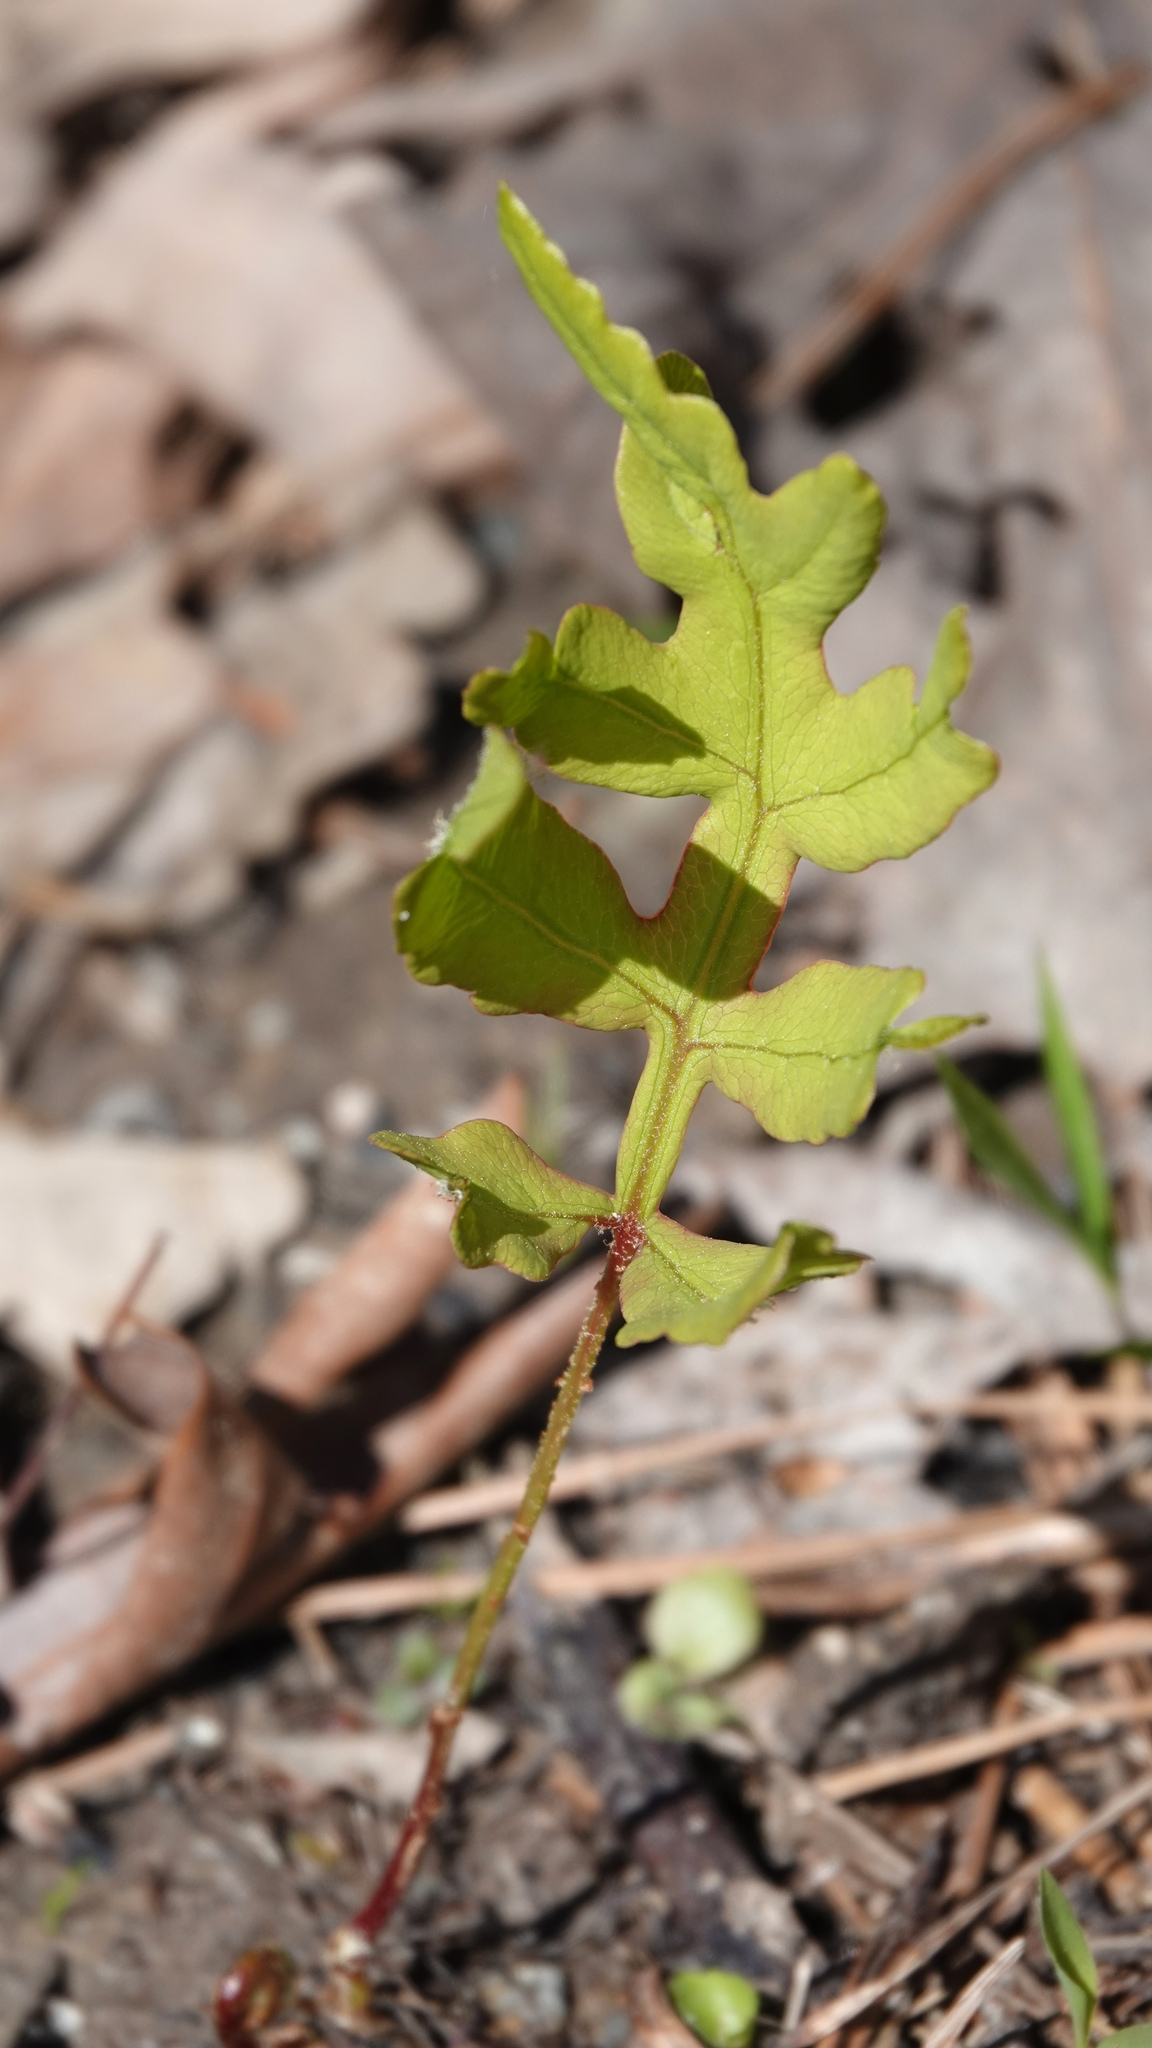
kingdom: Plantae
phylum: Tracheophyta
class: Polypodiopsida
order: Polypodiales
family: Onocleaceae
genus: Onoclea
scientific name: Onoclea sensibilis
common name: Sensitive fern
